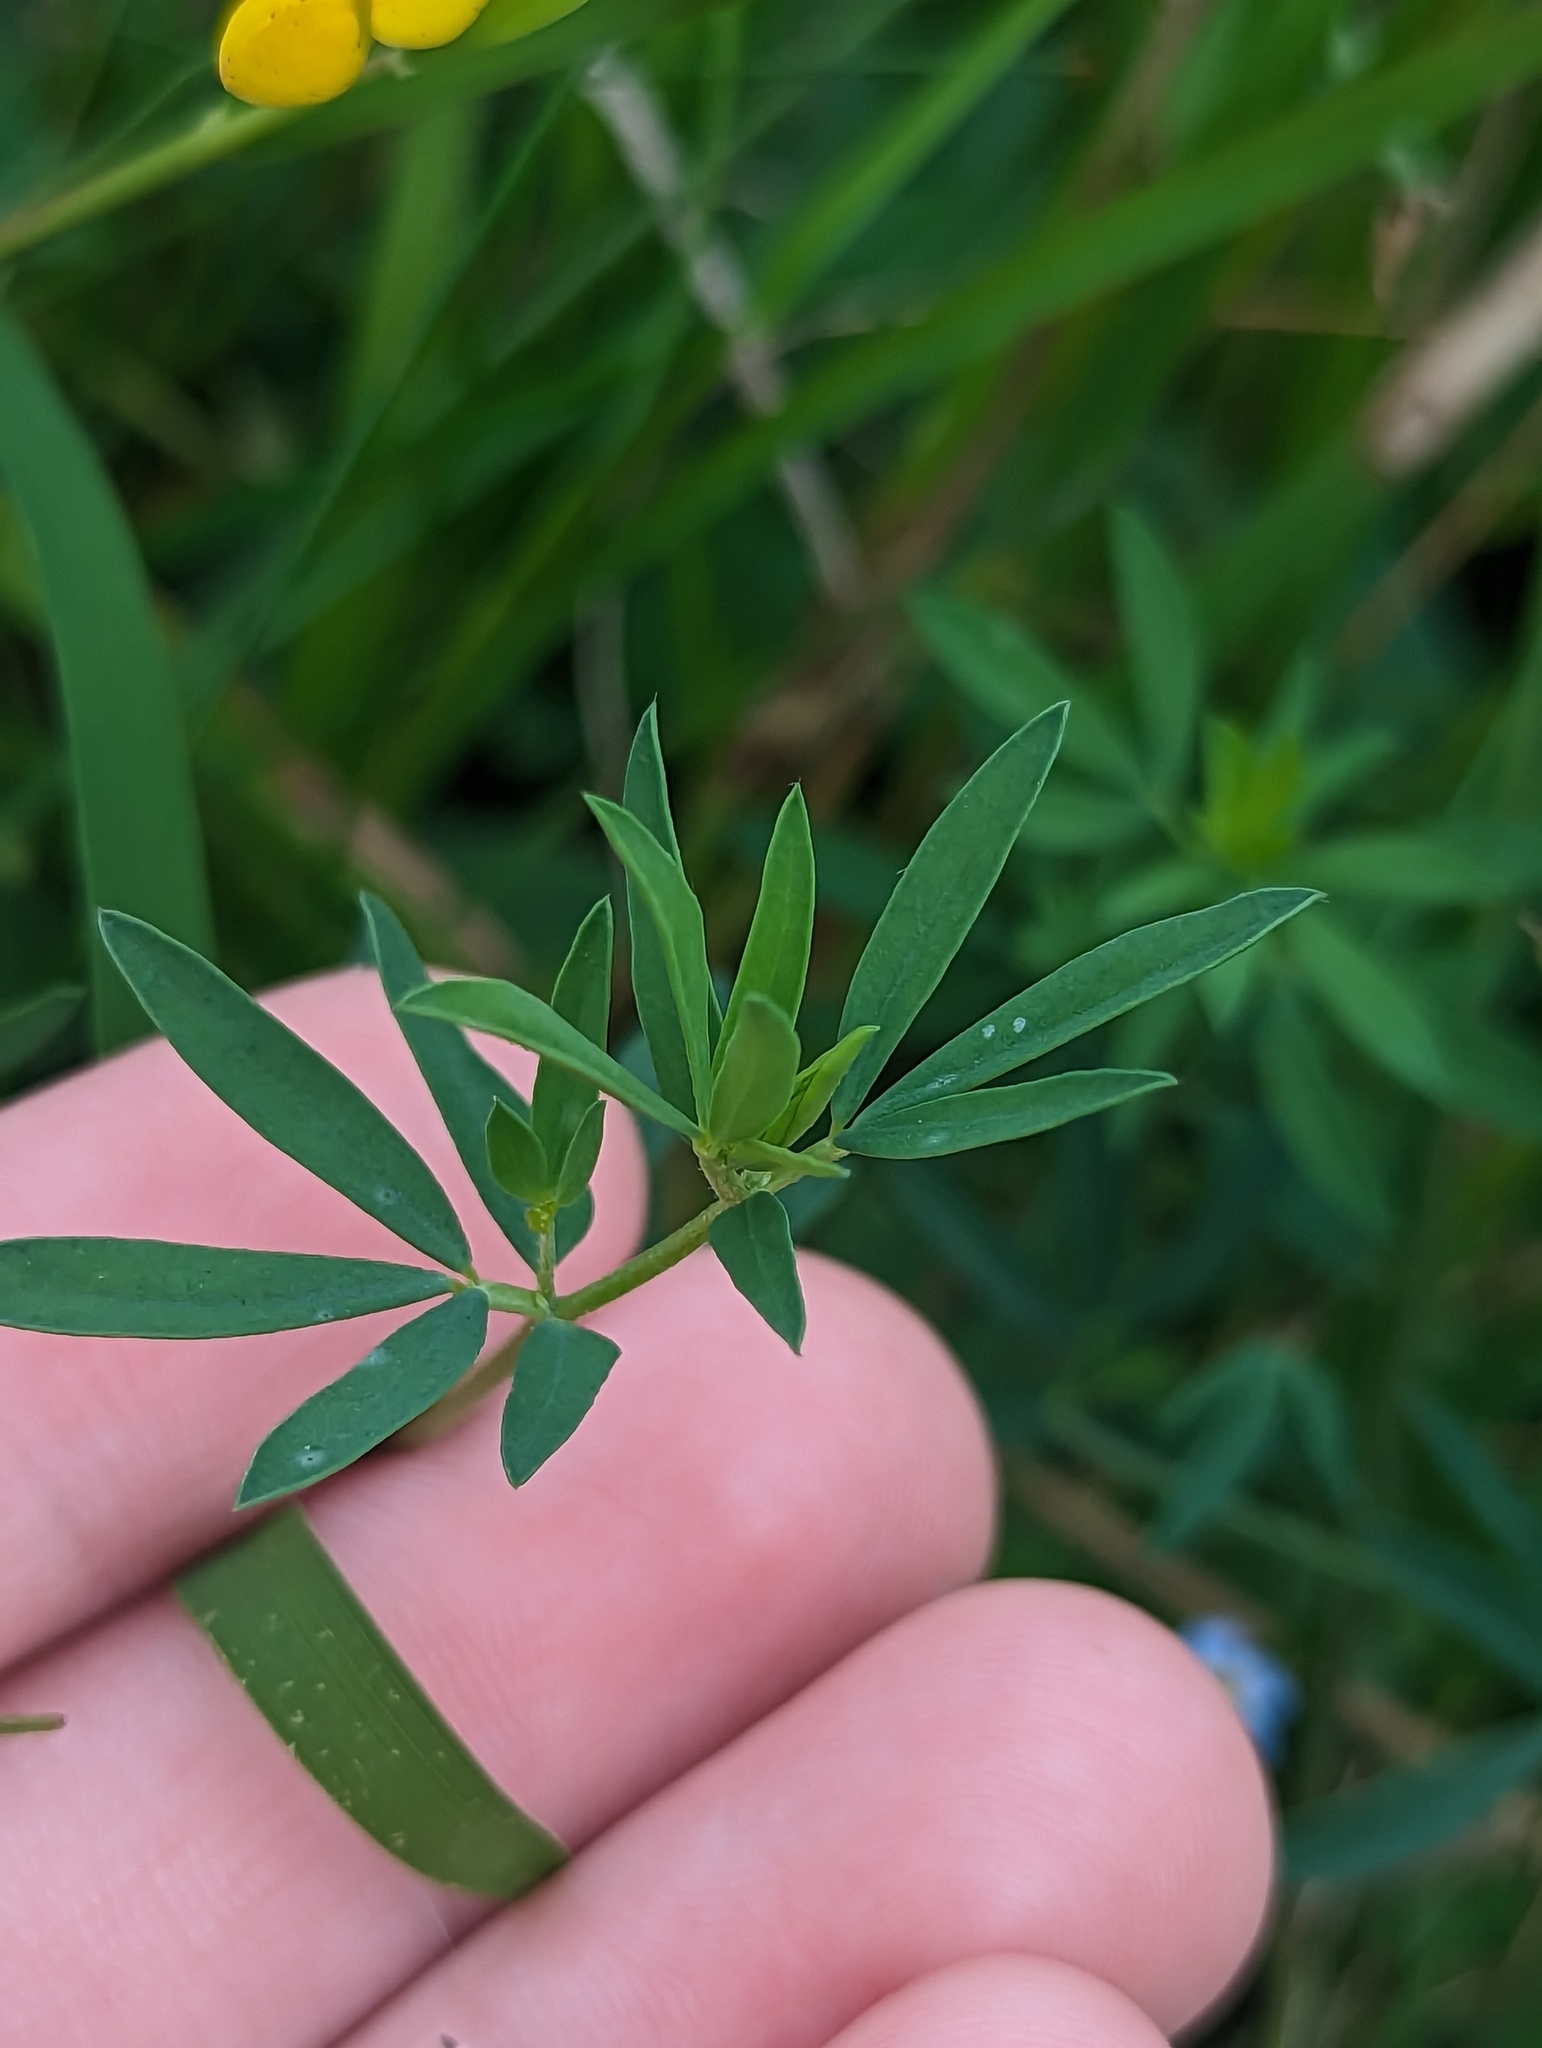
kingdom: Plantae
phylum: Tracheophyta
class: Magnoliopsida
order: Fabales
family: Fabaceae
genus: Lotus
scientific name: Lotus tenuis
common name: Narrow-leaved bird's-foot-trefoil
